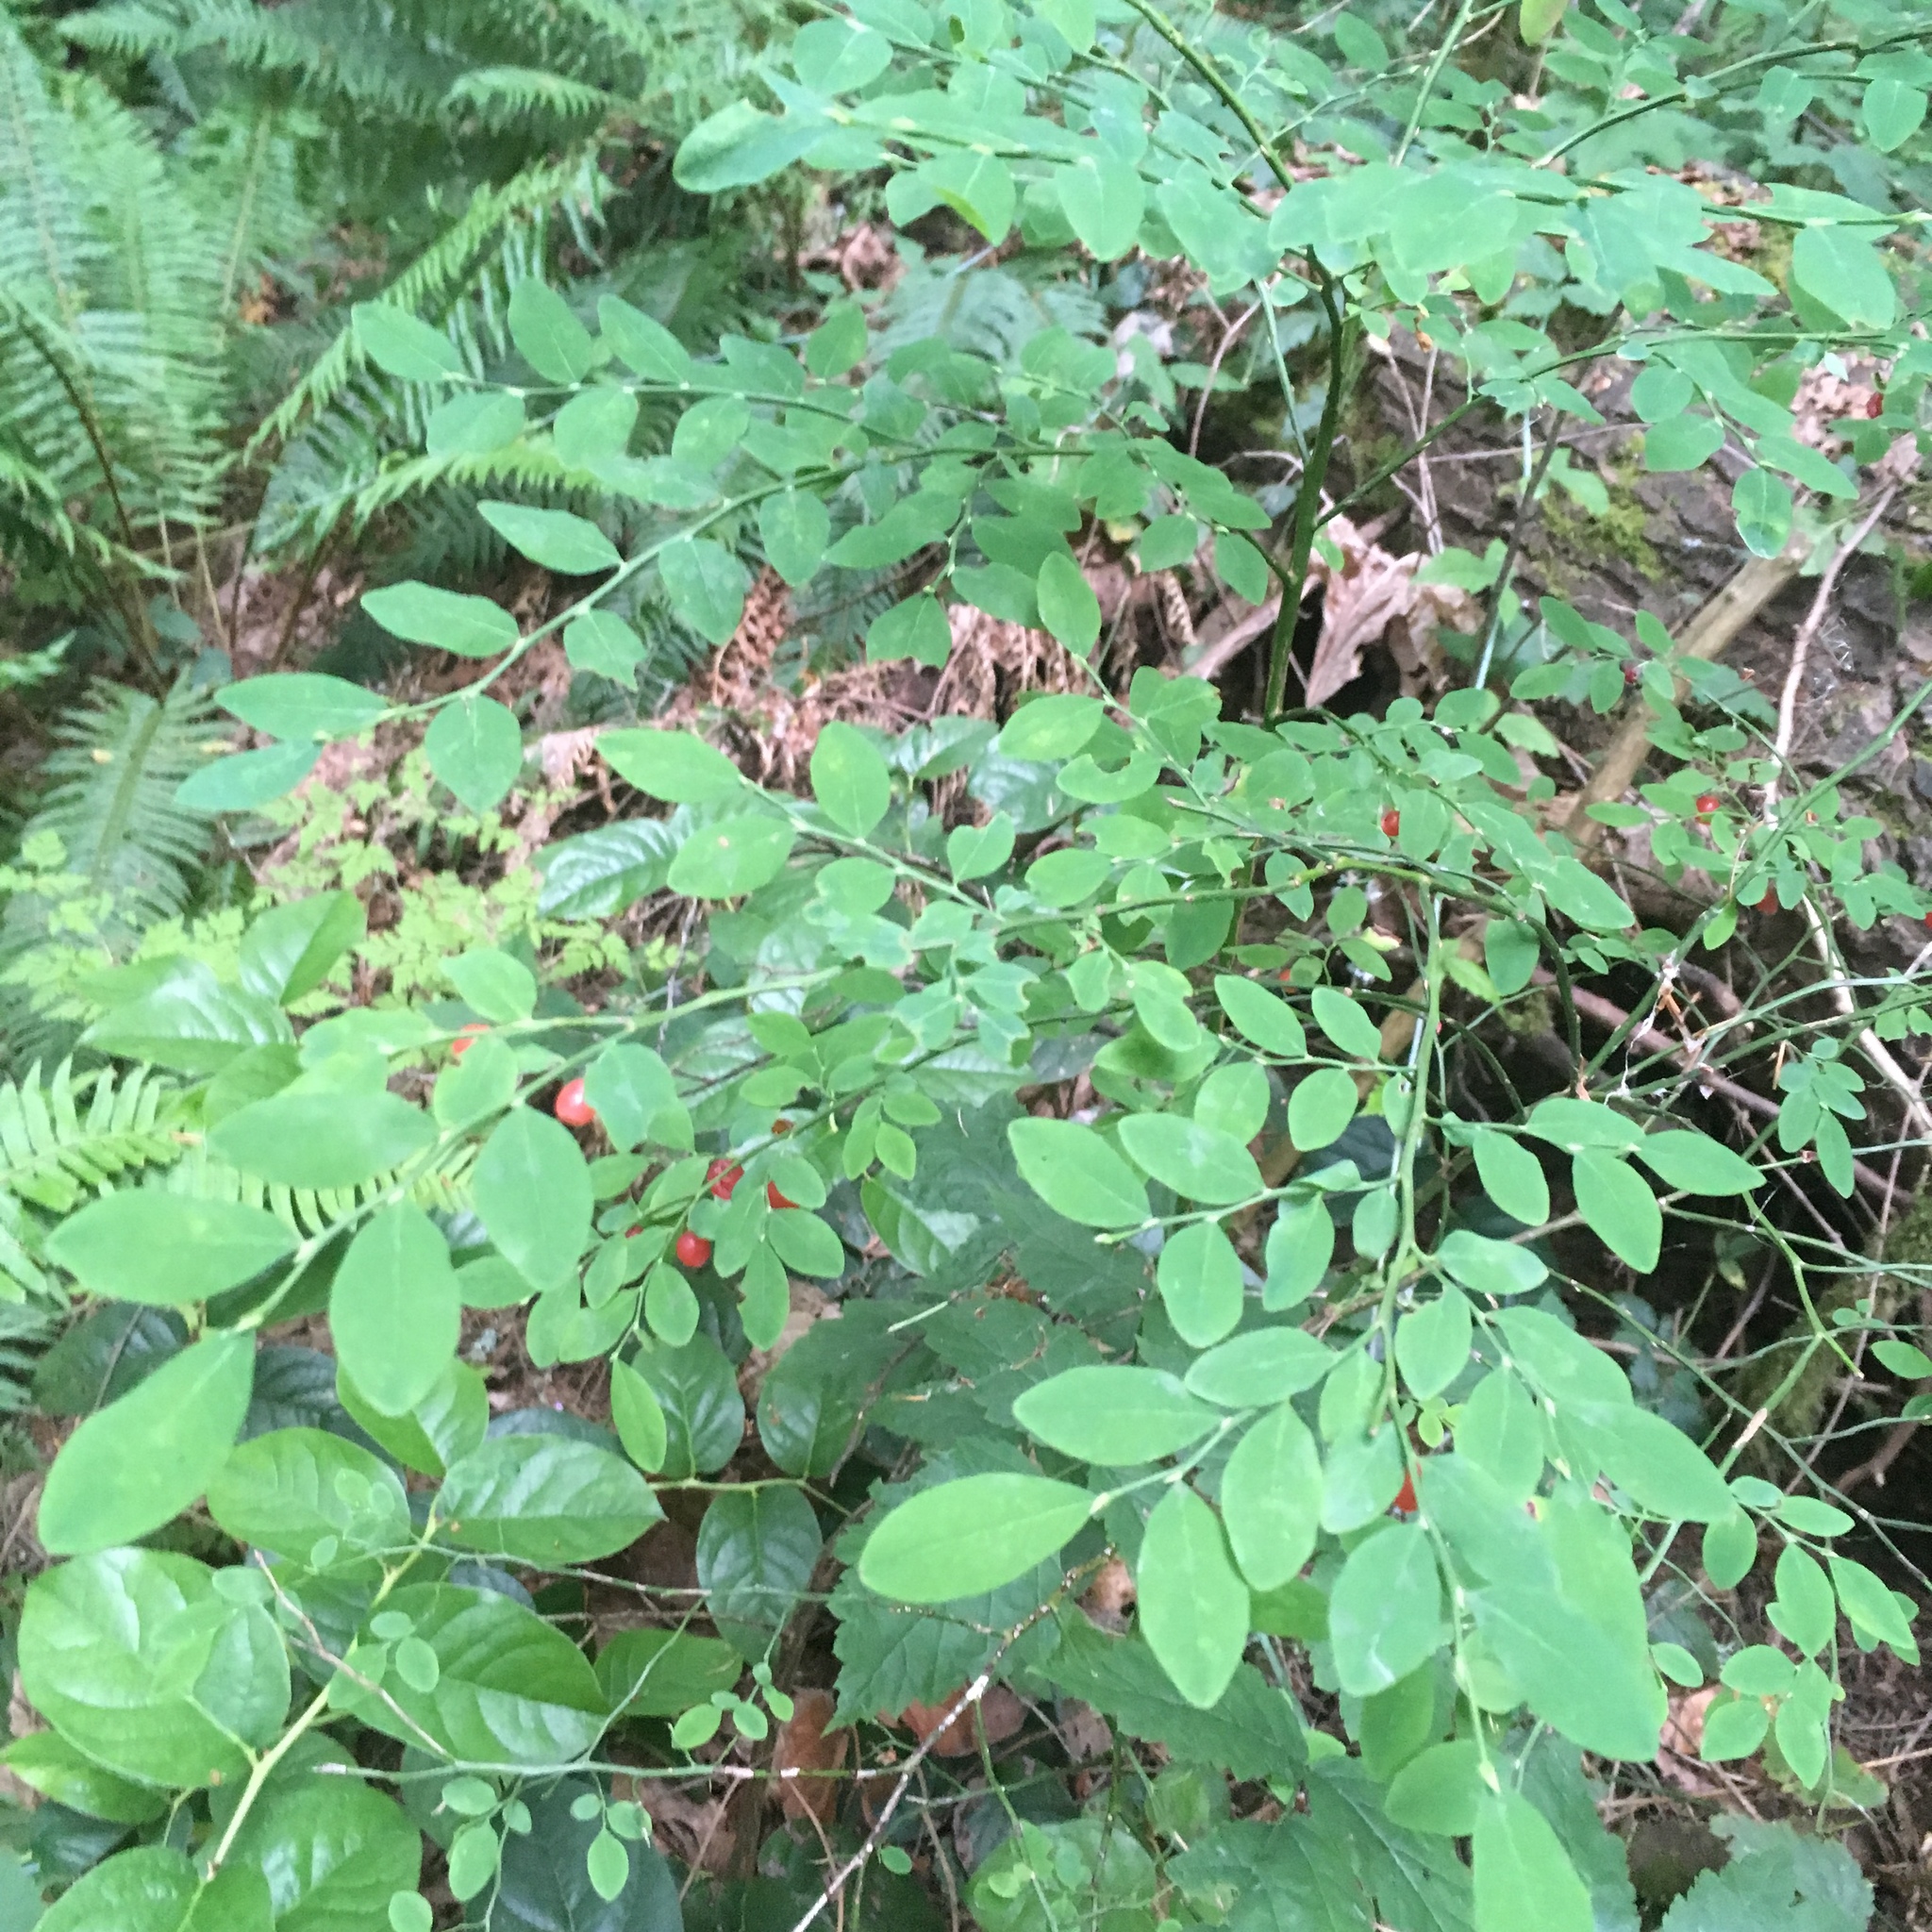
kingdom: Plantae
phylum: Tracheophyta
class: Magnoliopsida
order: Ericales
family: Ericaceae
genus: Vaccinium
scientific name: Vaccinium parvifolium
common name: Red-huckleberry
